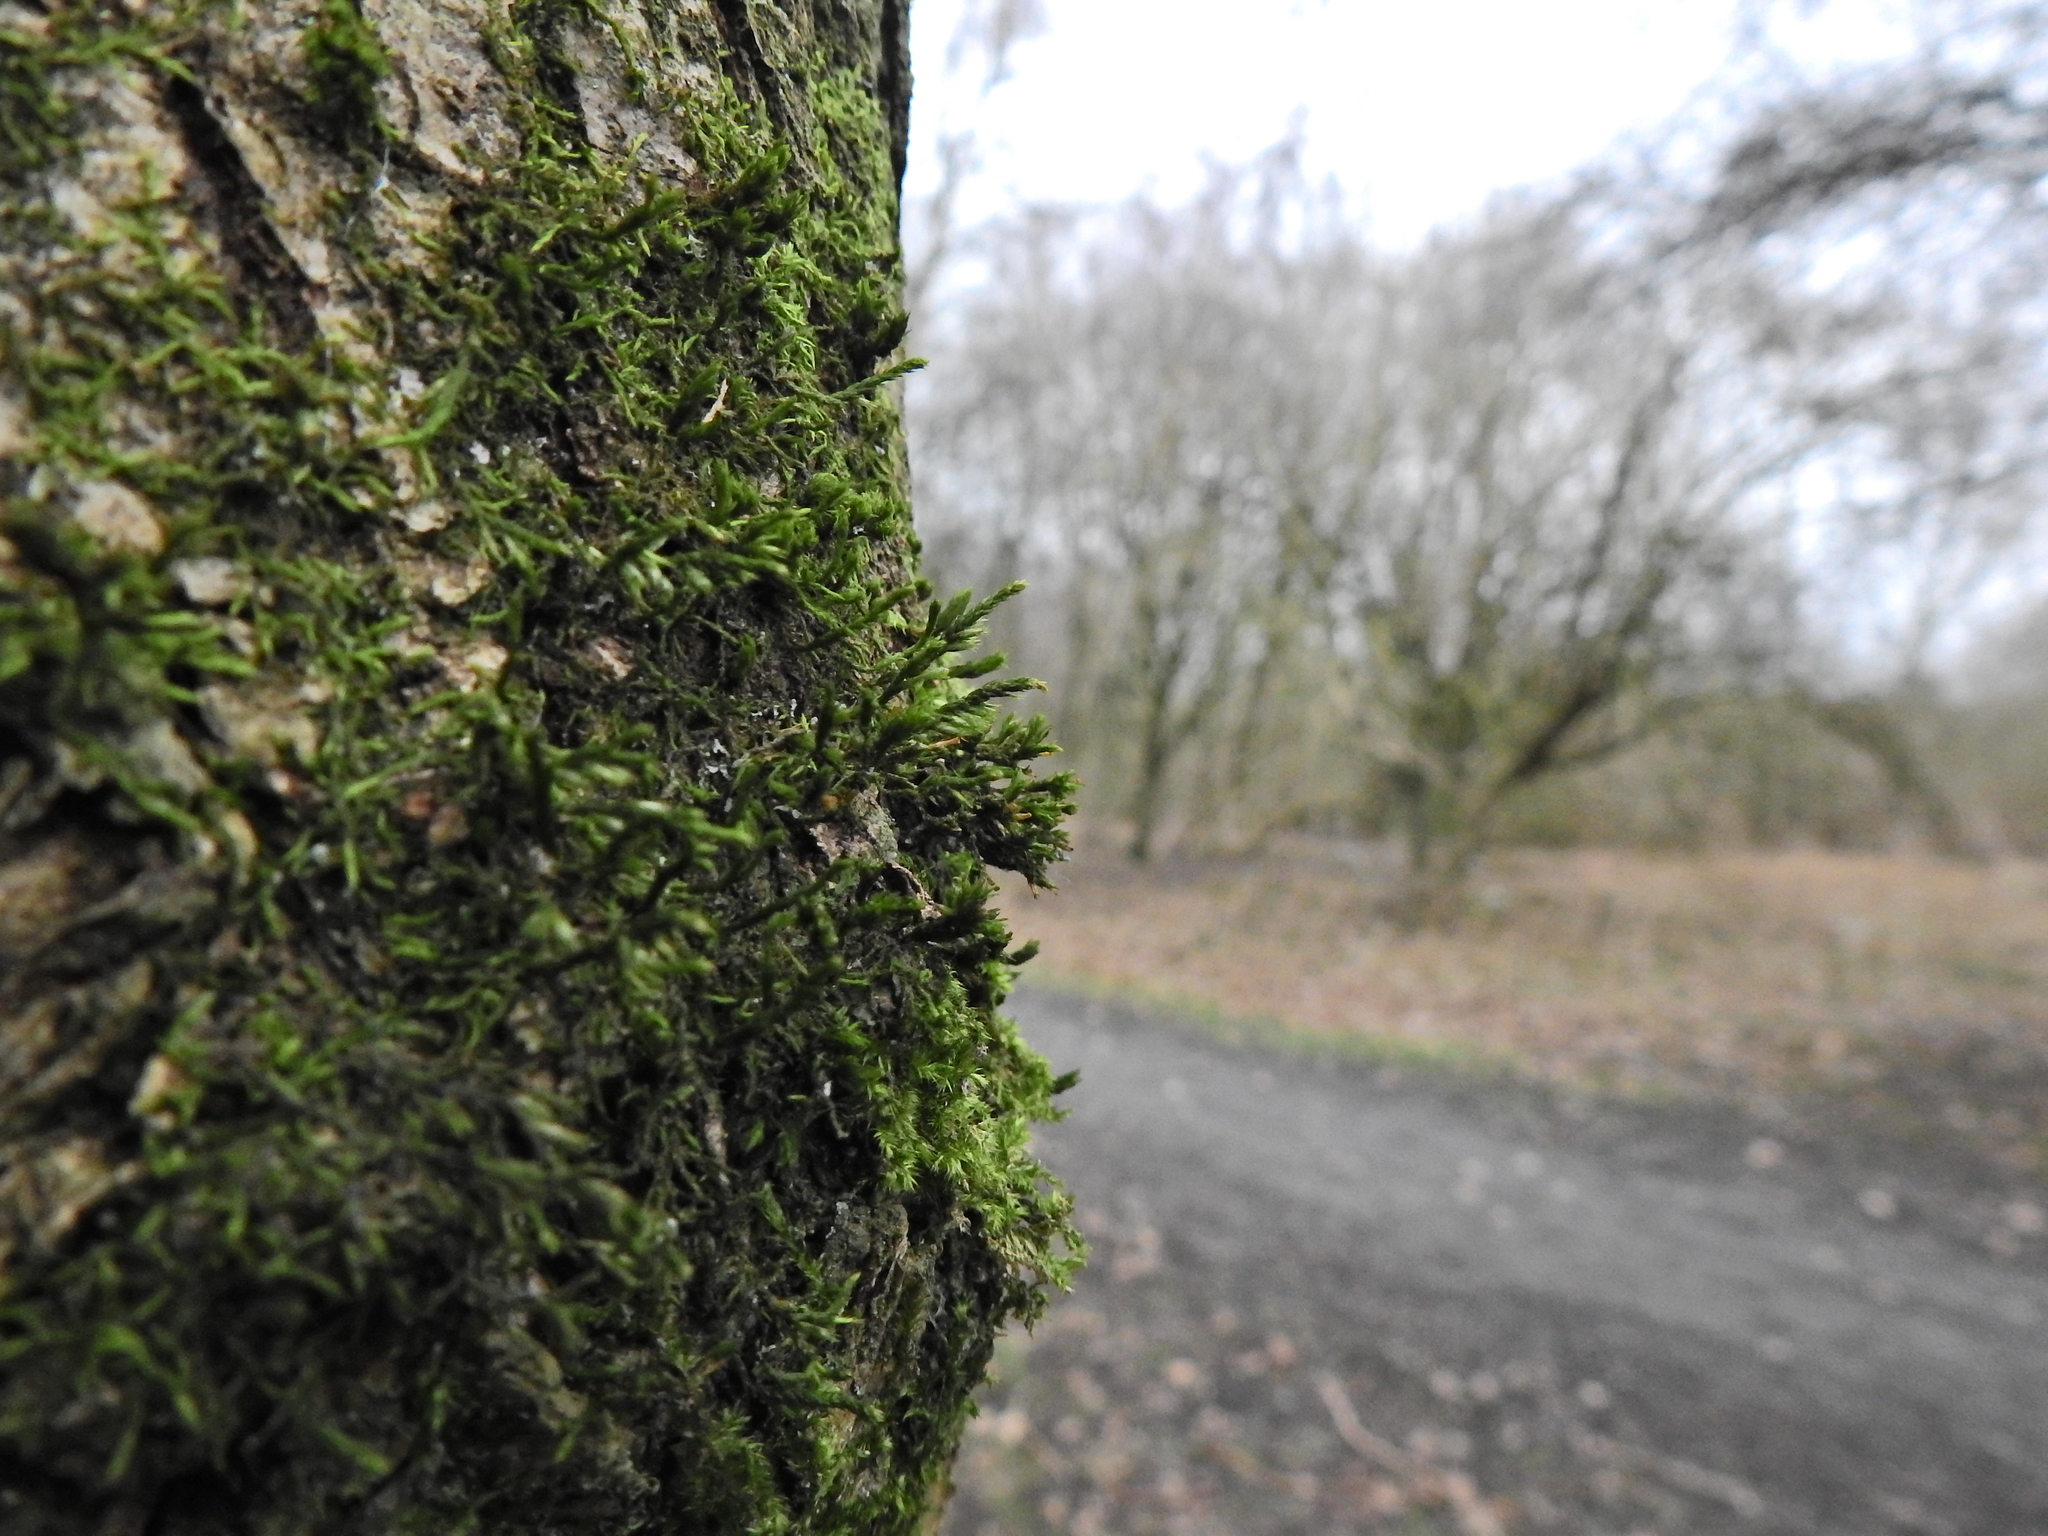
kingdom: Plantae
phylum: Bryophyta
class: Bryopsida
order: Hypnales
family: Cryphaeaceae
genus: Cryphaea
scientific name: Cryphaea heteromalla
